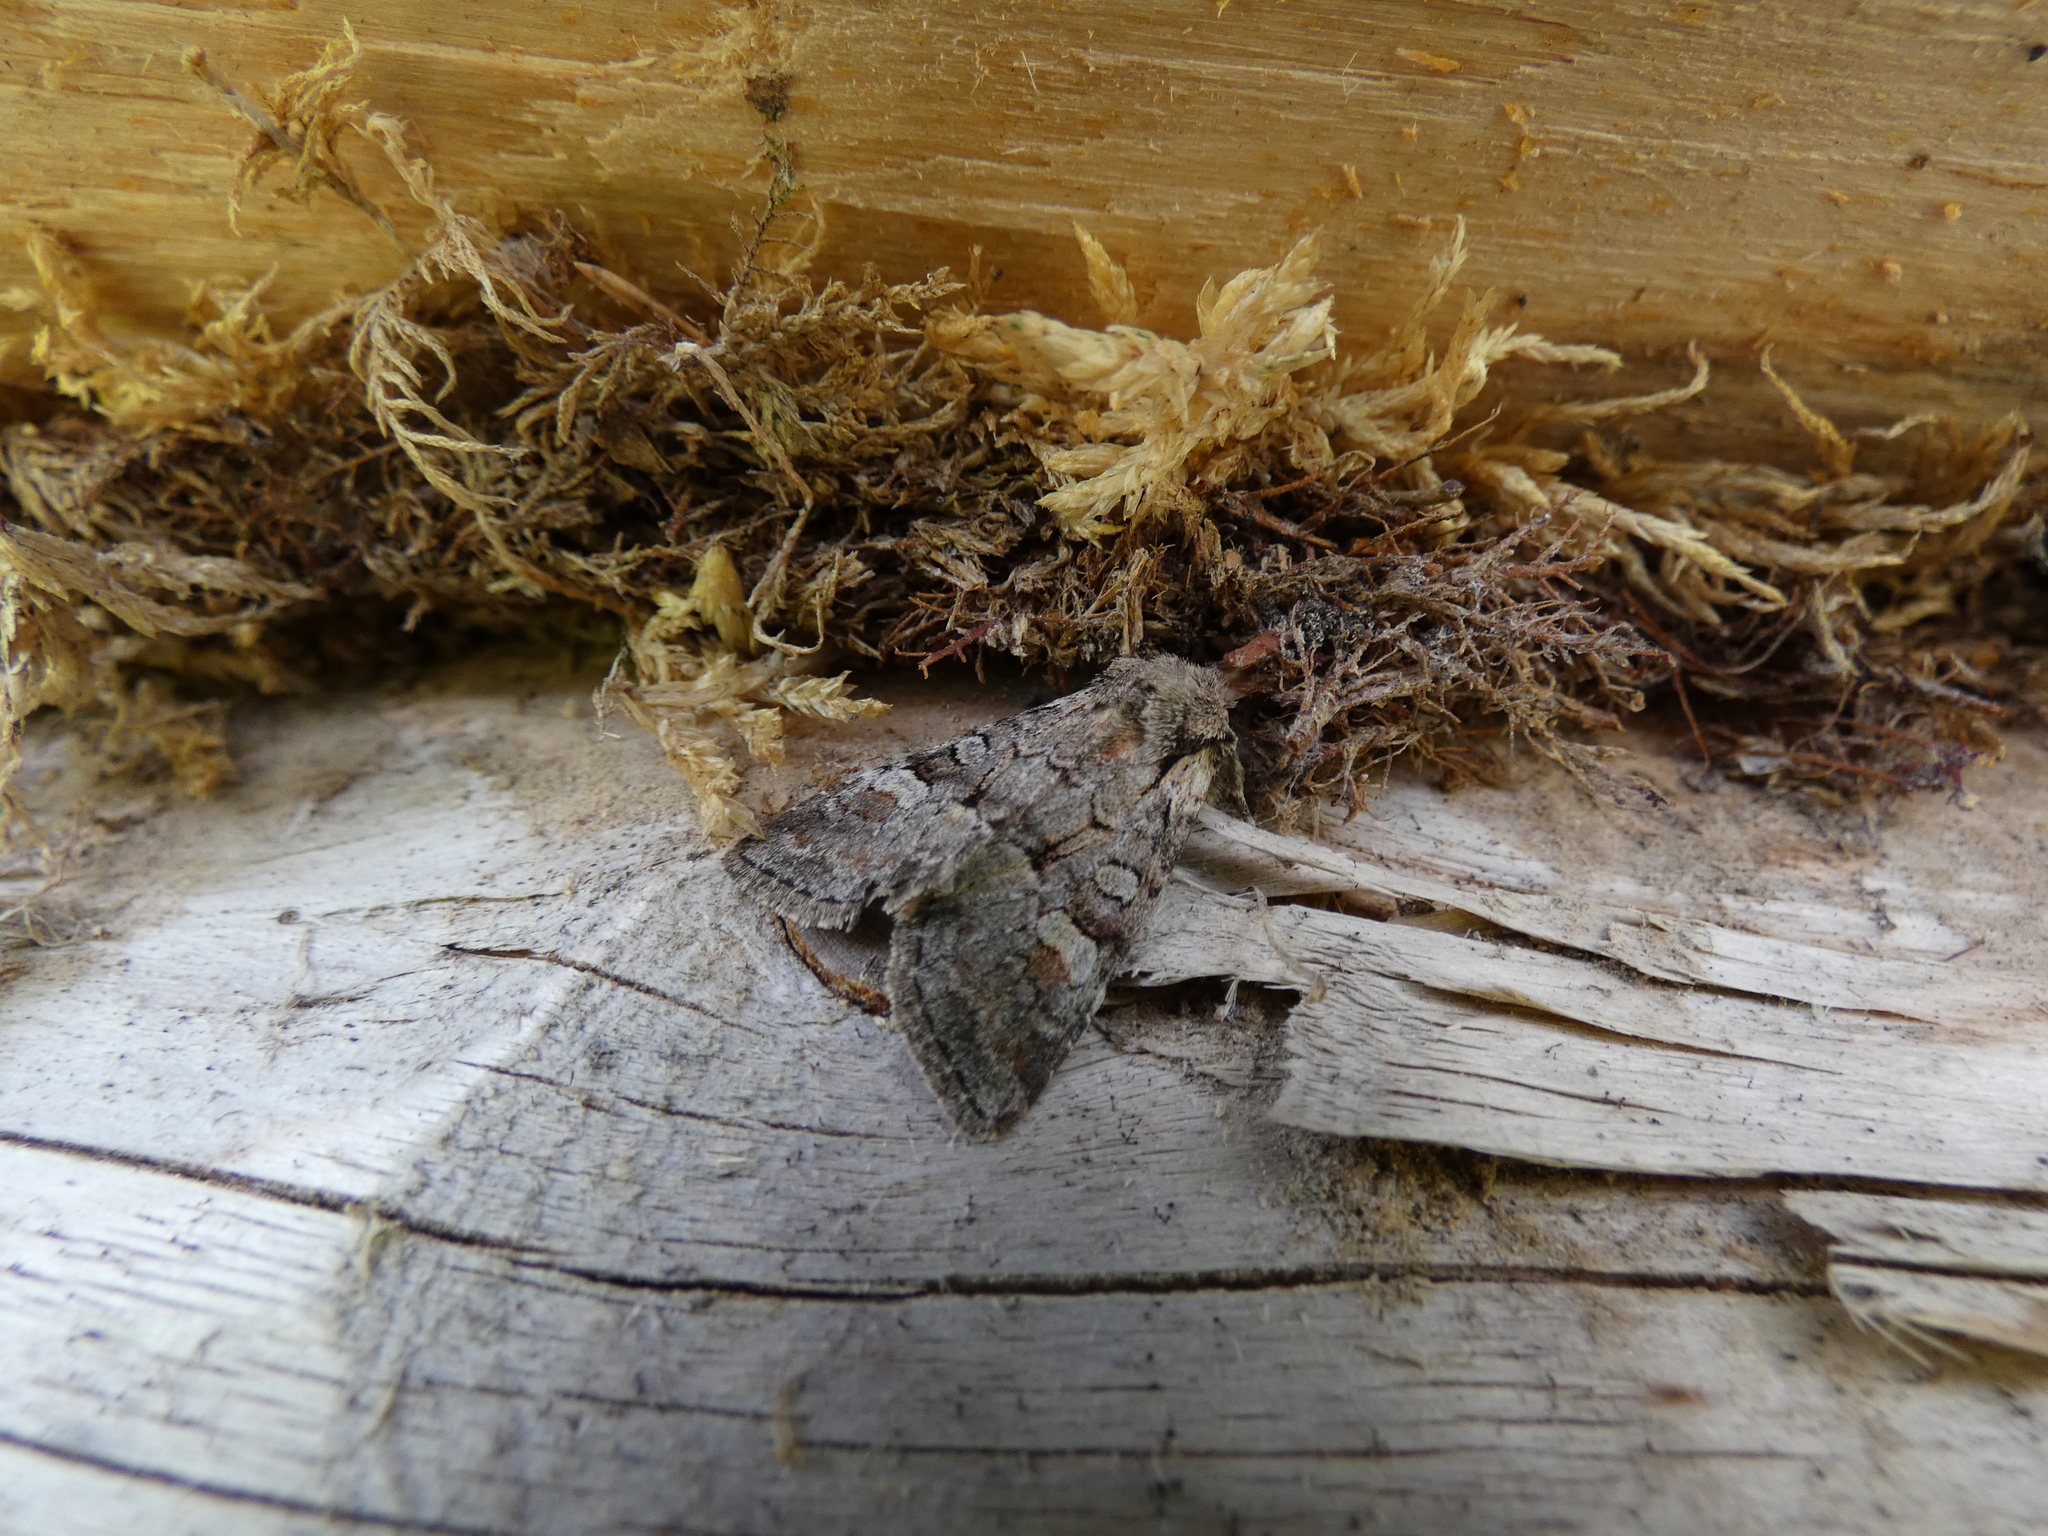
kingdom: Animalia
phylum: Arthropoda
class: Insecta
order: Lepidoptera
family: Noctuidae
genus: Brachylomia
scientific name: Brachylomia viminalis
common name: Minor shoulder-knot
